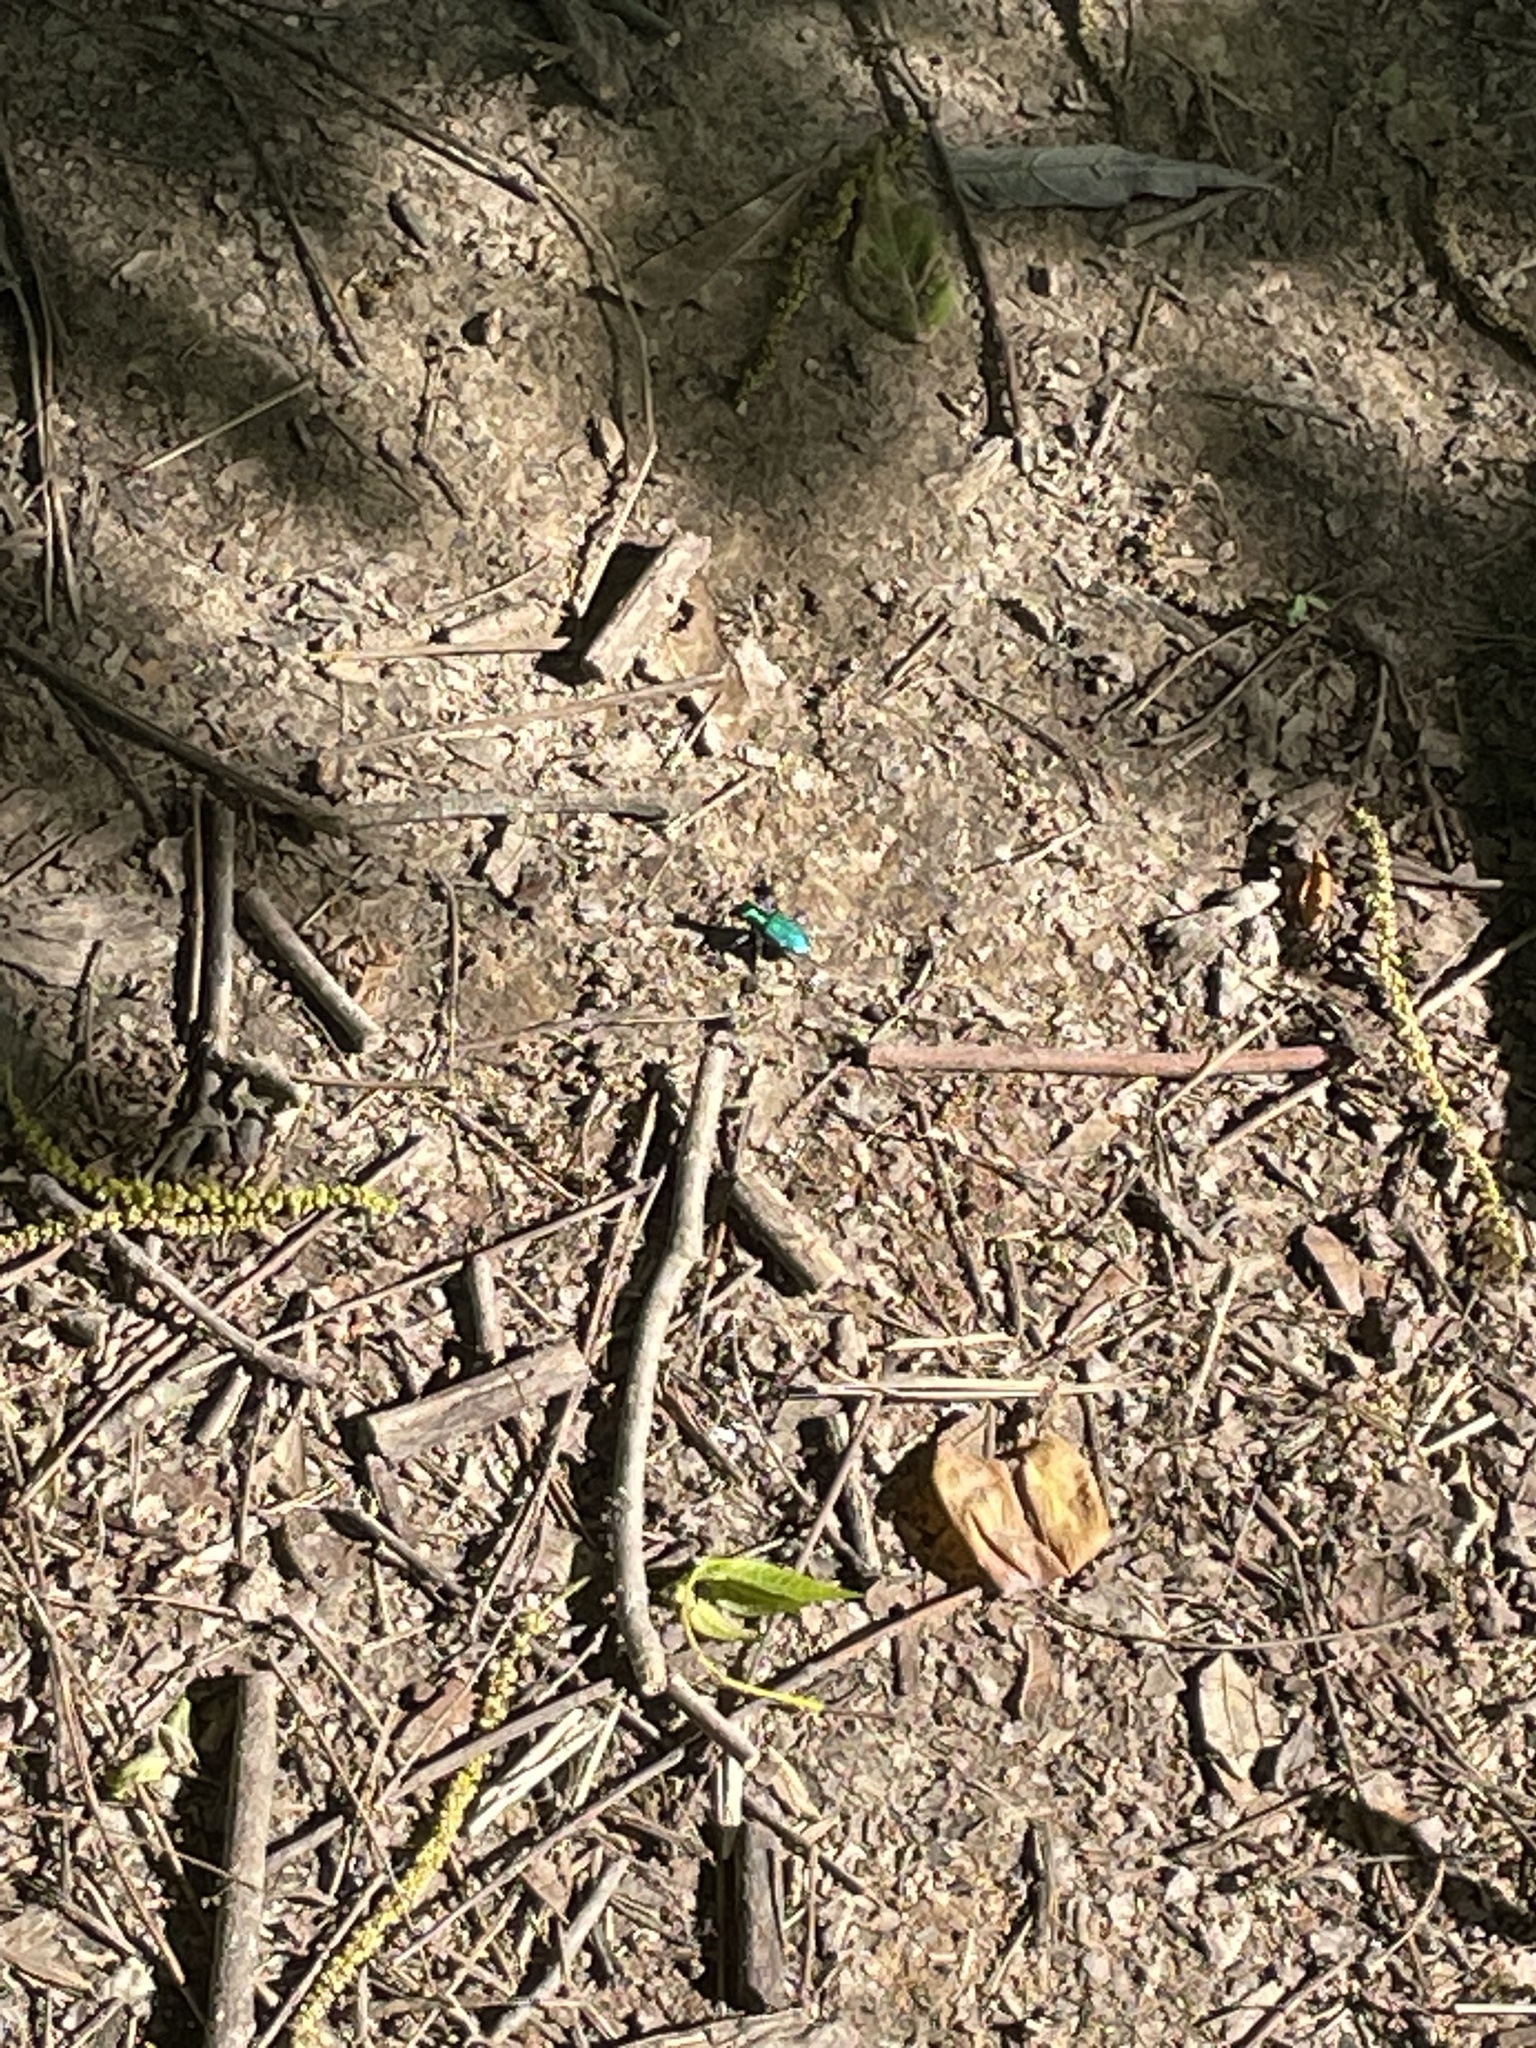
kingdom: Animalia
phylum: Arthropoda
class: Insecta
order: Coleoptera
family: Carabidae
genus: Cicindela
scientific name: Cicindela sexguttata
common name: Six-spotted tiger beetle
